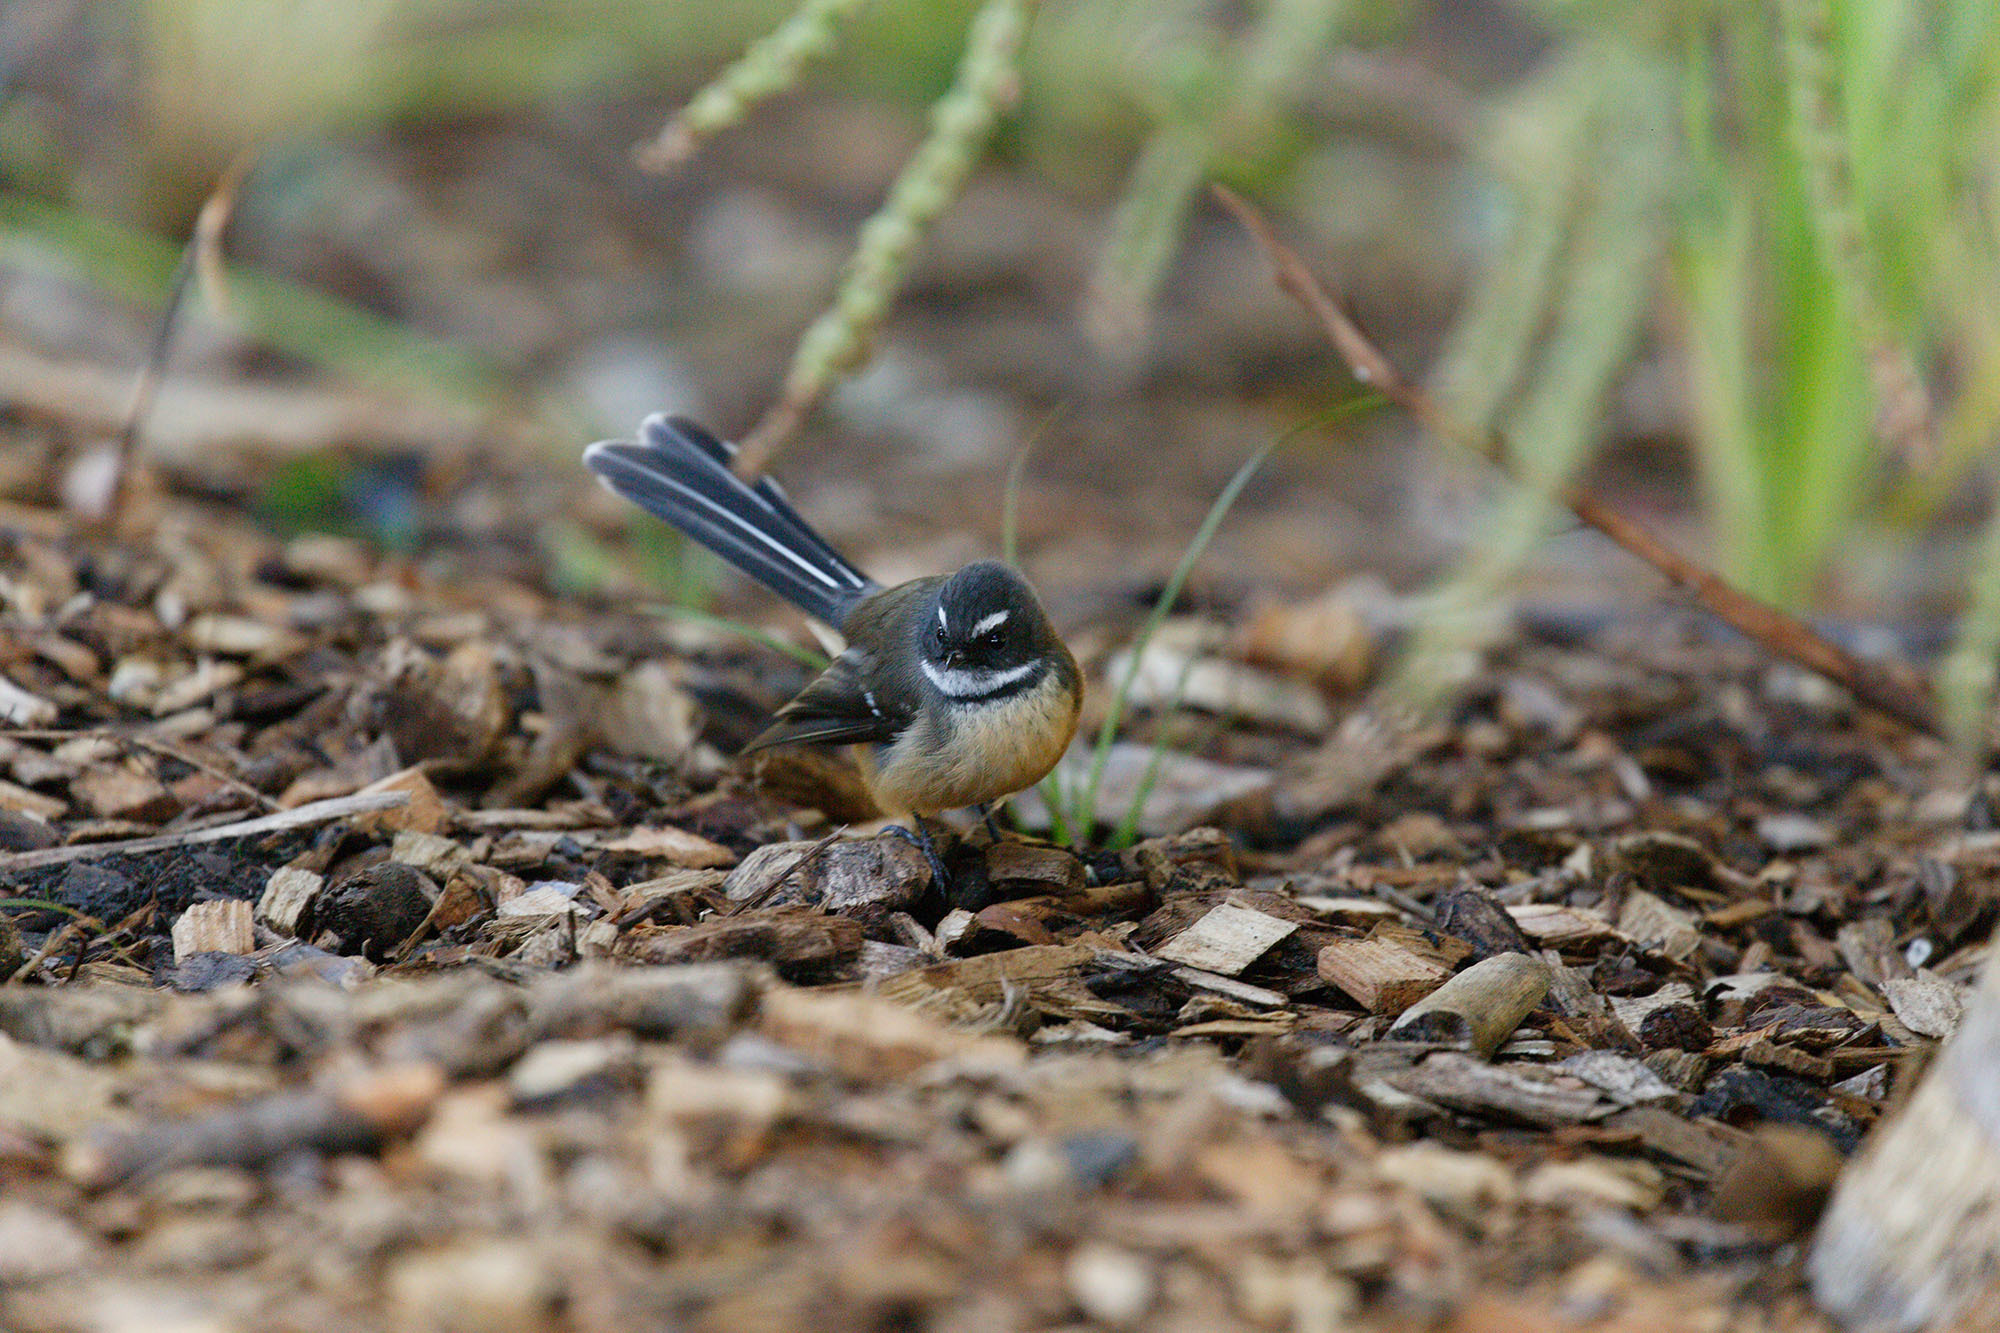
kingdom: Animalia
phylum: Chordata
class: Aves
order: Passeriformes
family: Rhipiduridae
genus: Rhipidura
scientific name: Rhipidura fuliginosa
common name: New zealand fantail
